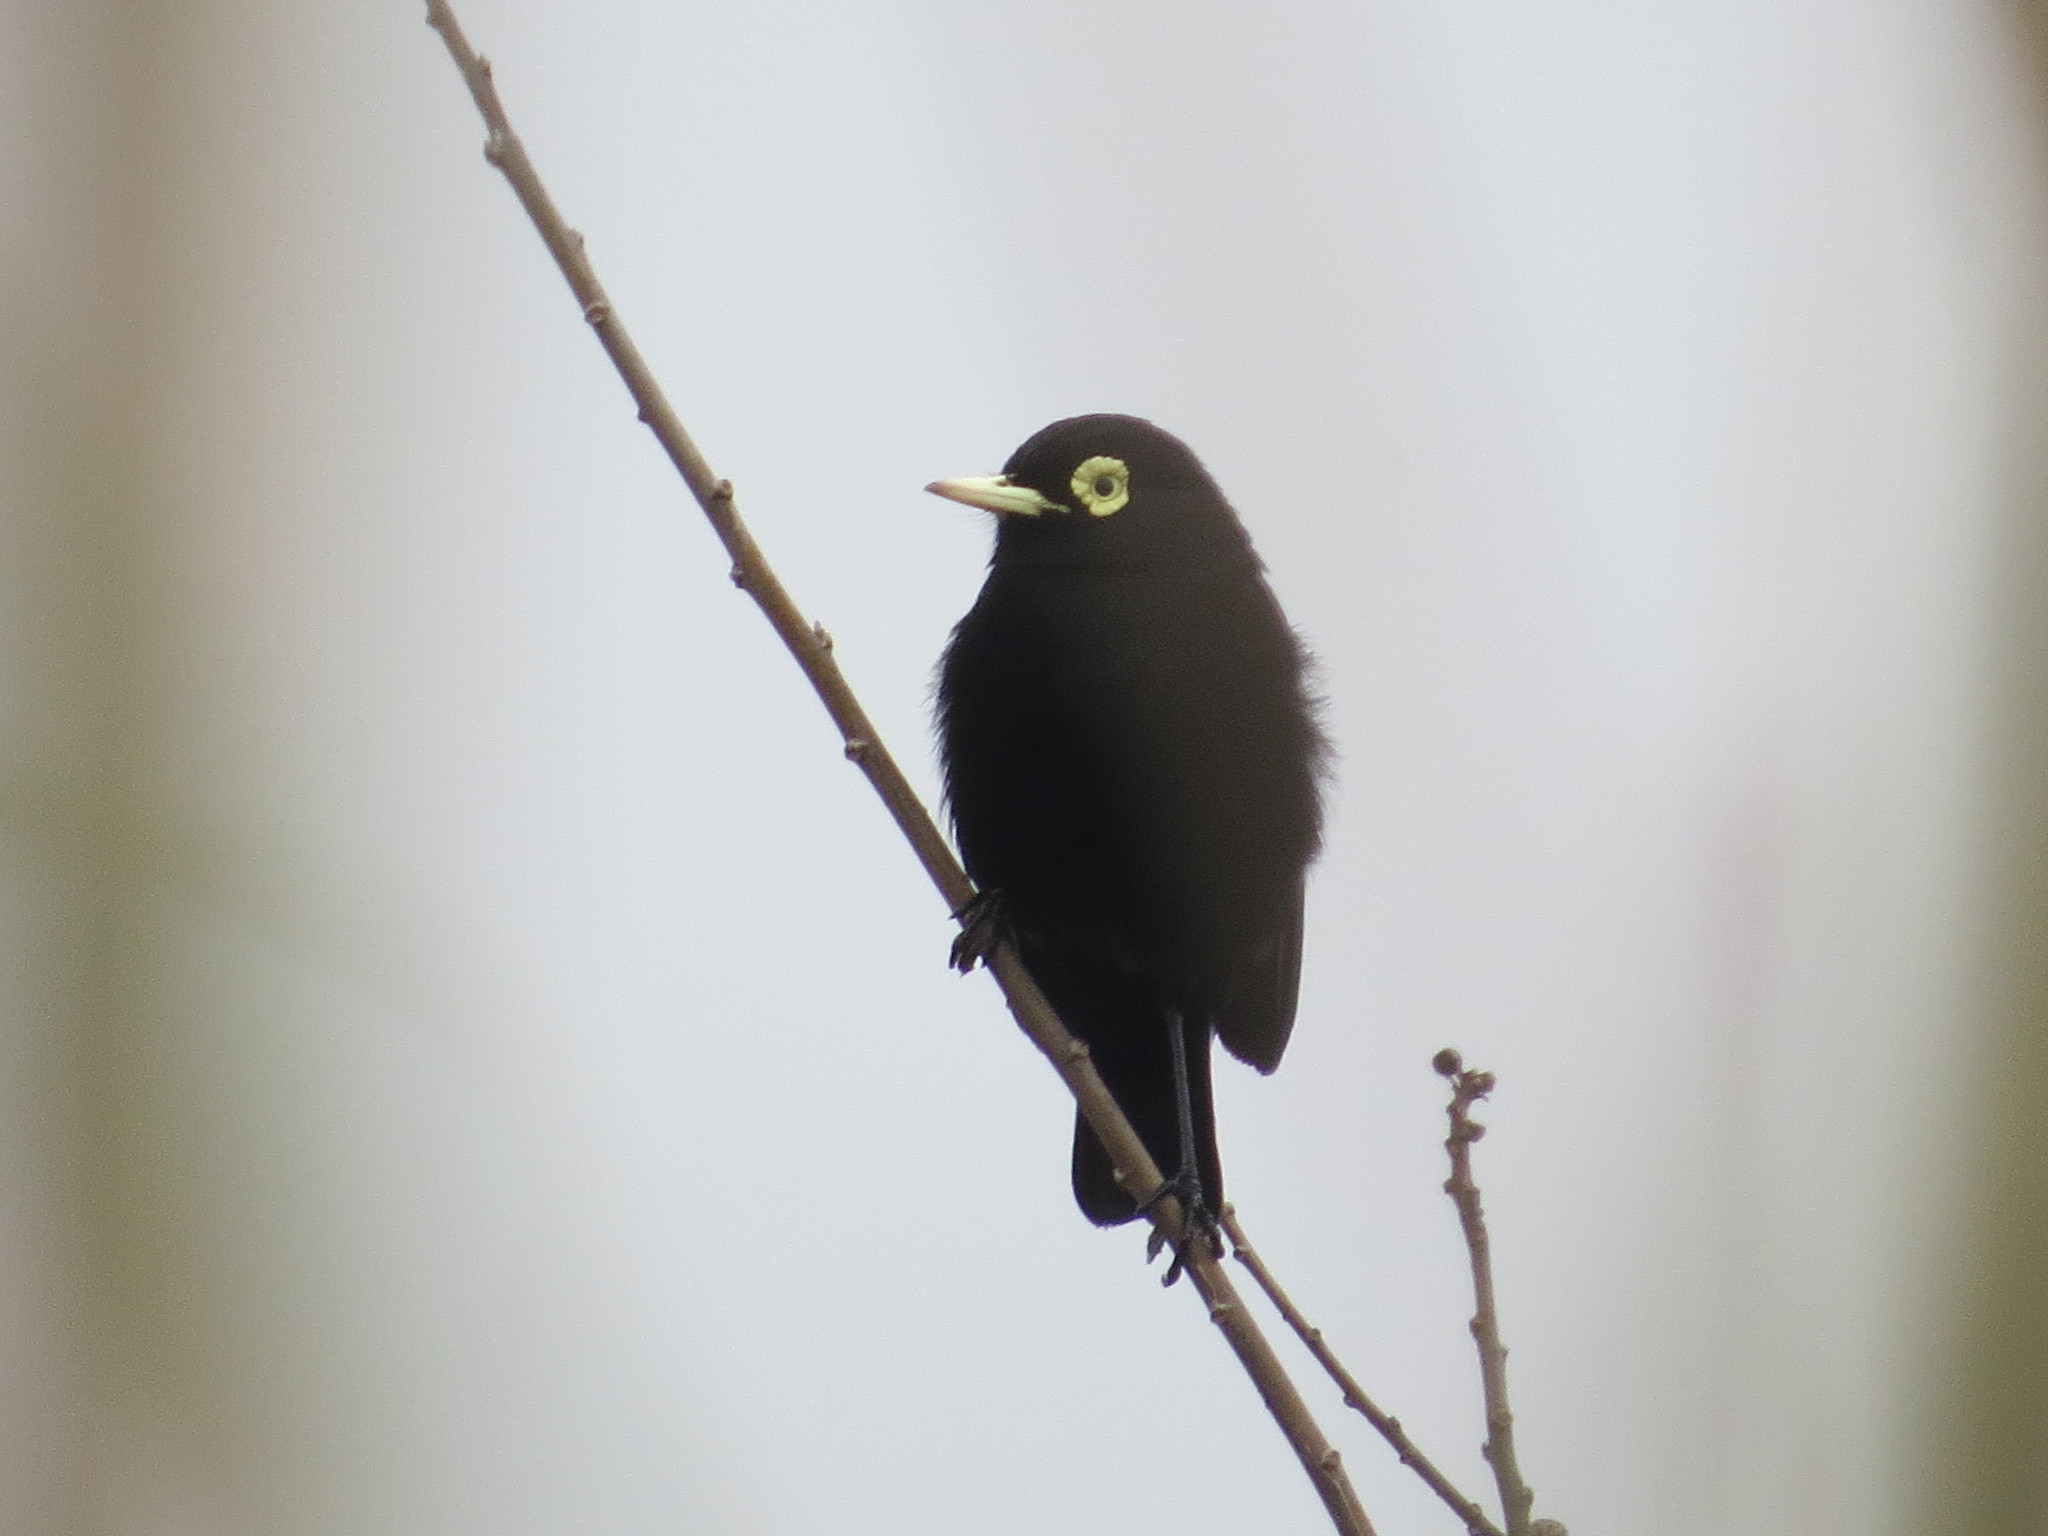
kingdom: Animalia
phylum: Chordata
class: Aves
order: Passeriformes
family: Tyrannidae
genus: Hymenops
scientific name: Hymenops perspicillatus
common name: Spectacled tyrant
